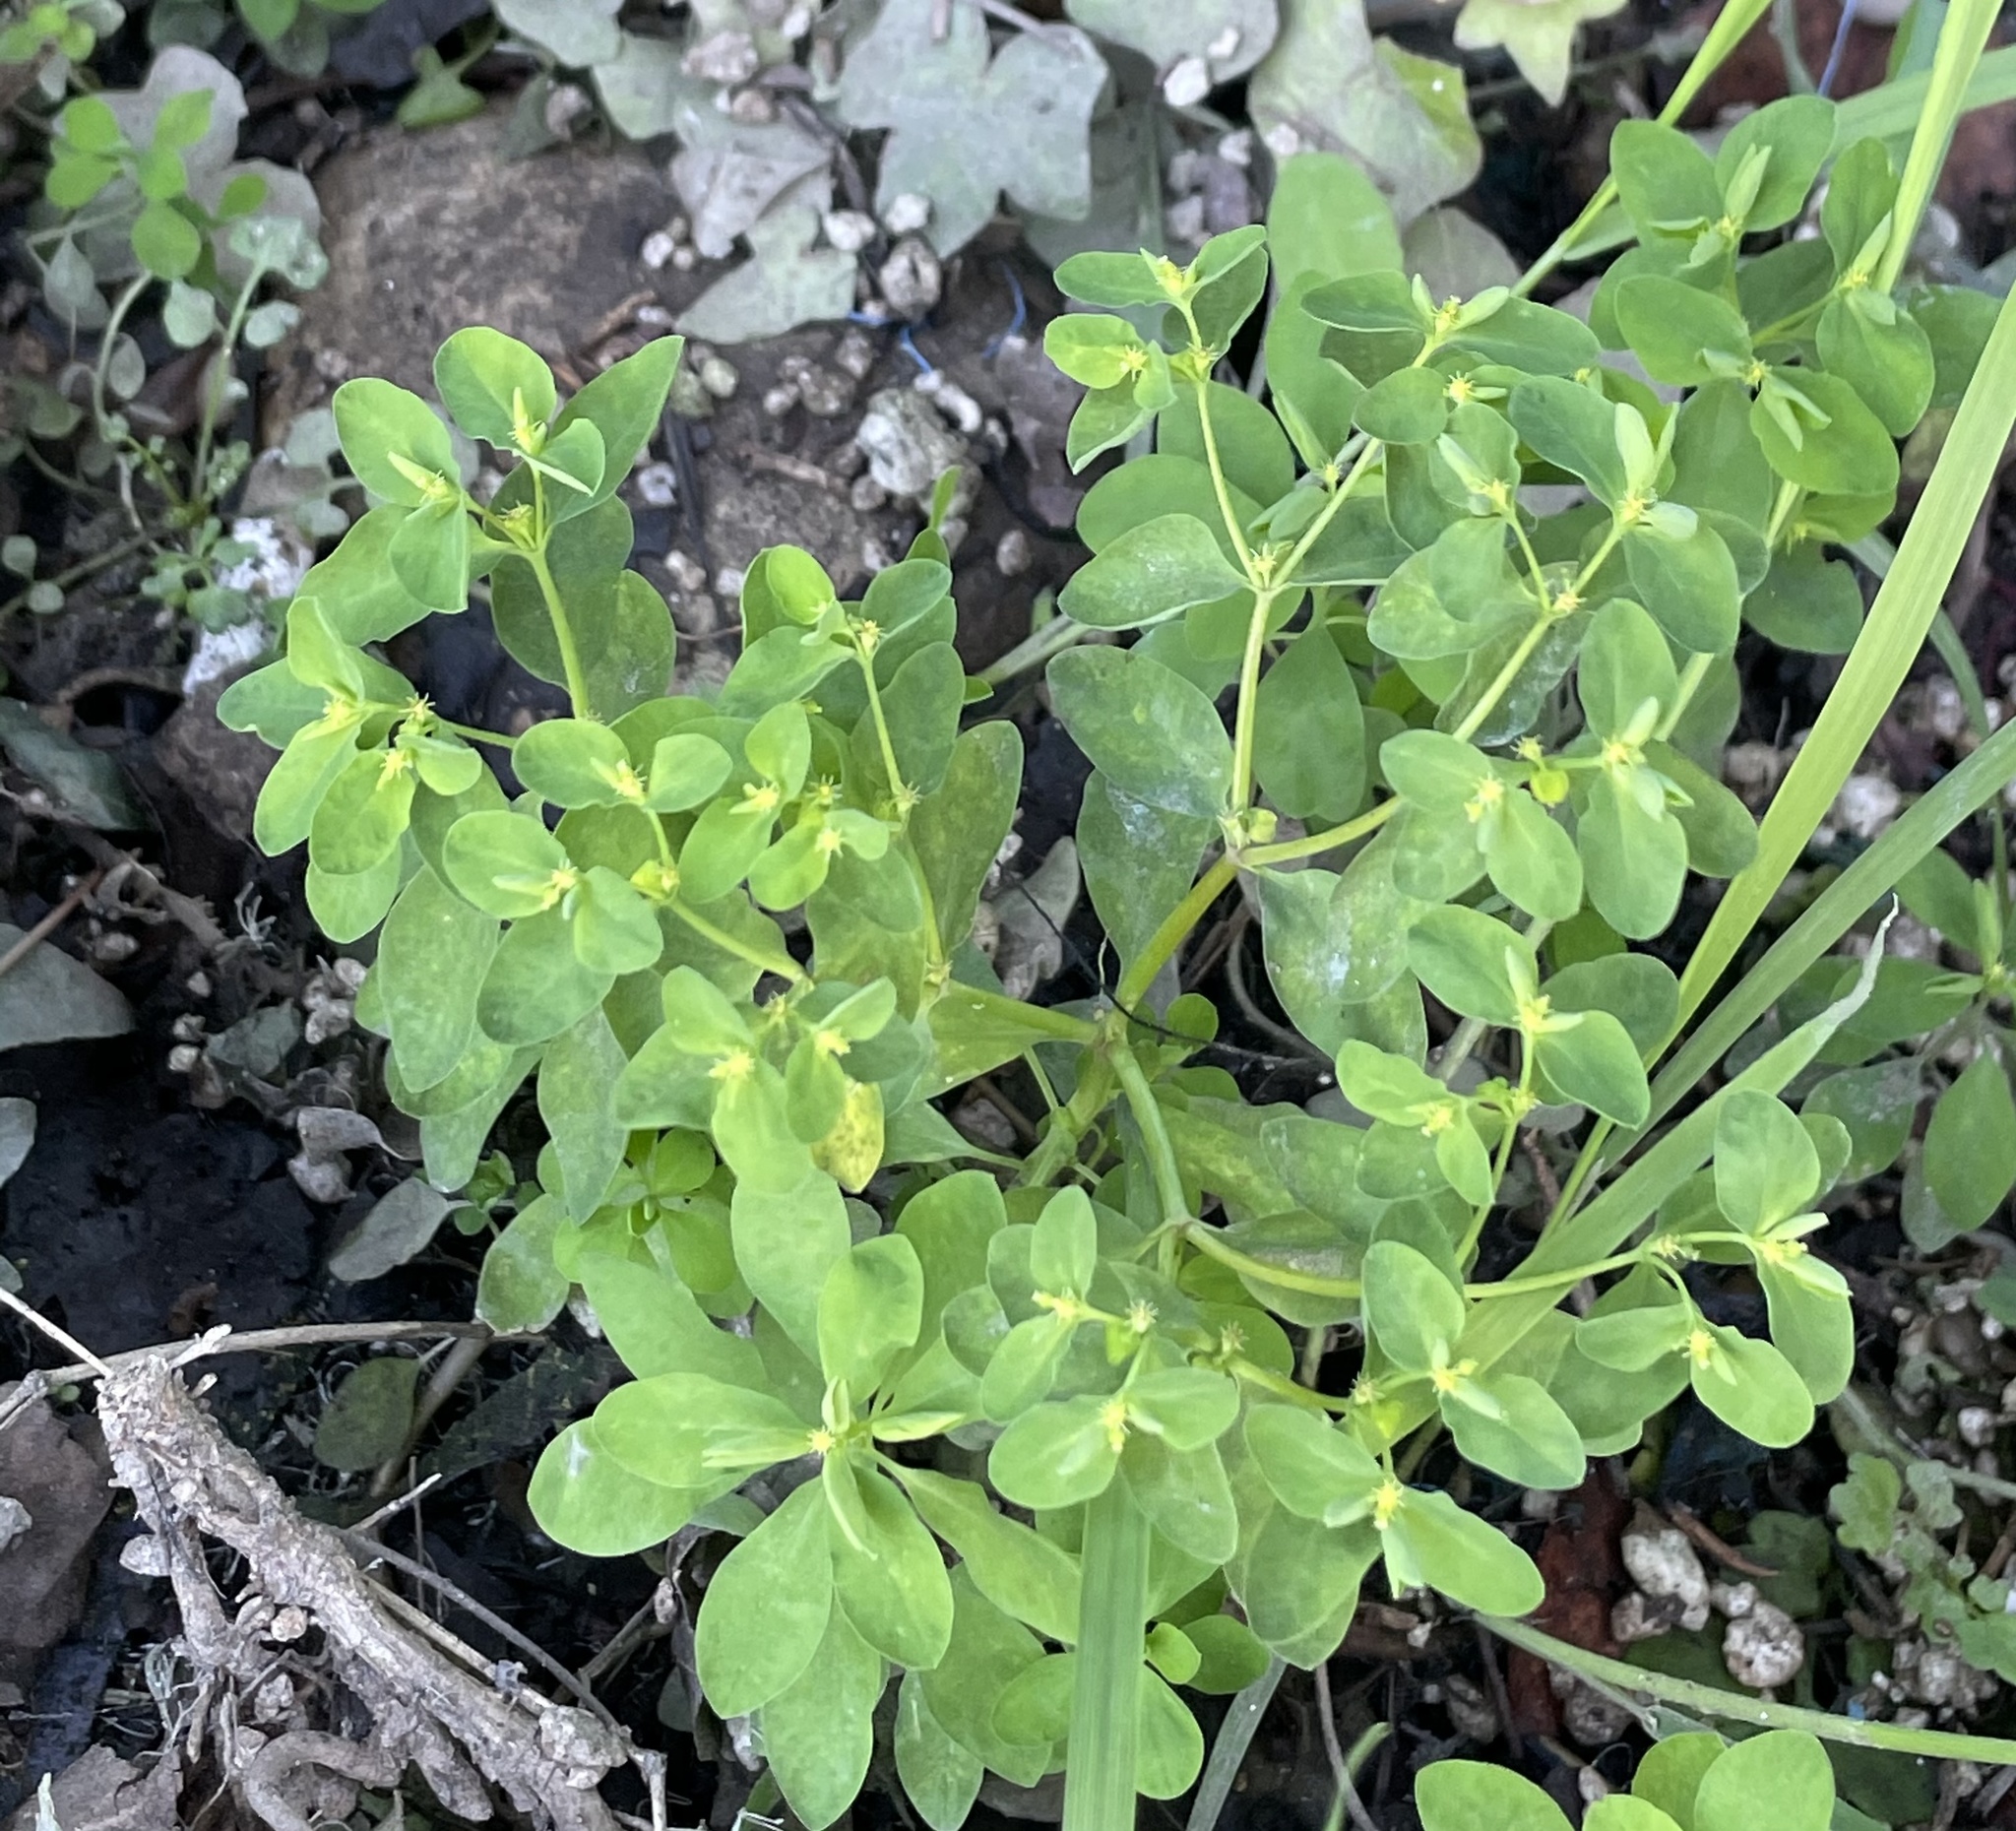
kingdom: Plantae
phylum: Tracheophyta
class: Magnoliopsida
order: Malpighiales
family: Euphorbiaceae
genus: Euphorbia
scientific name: Euphorbia peplus
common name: Petty spurge
